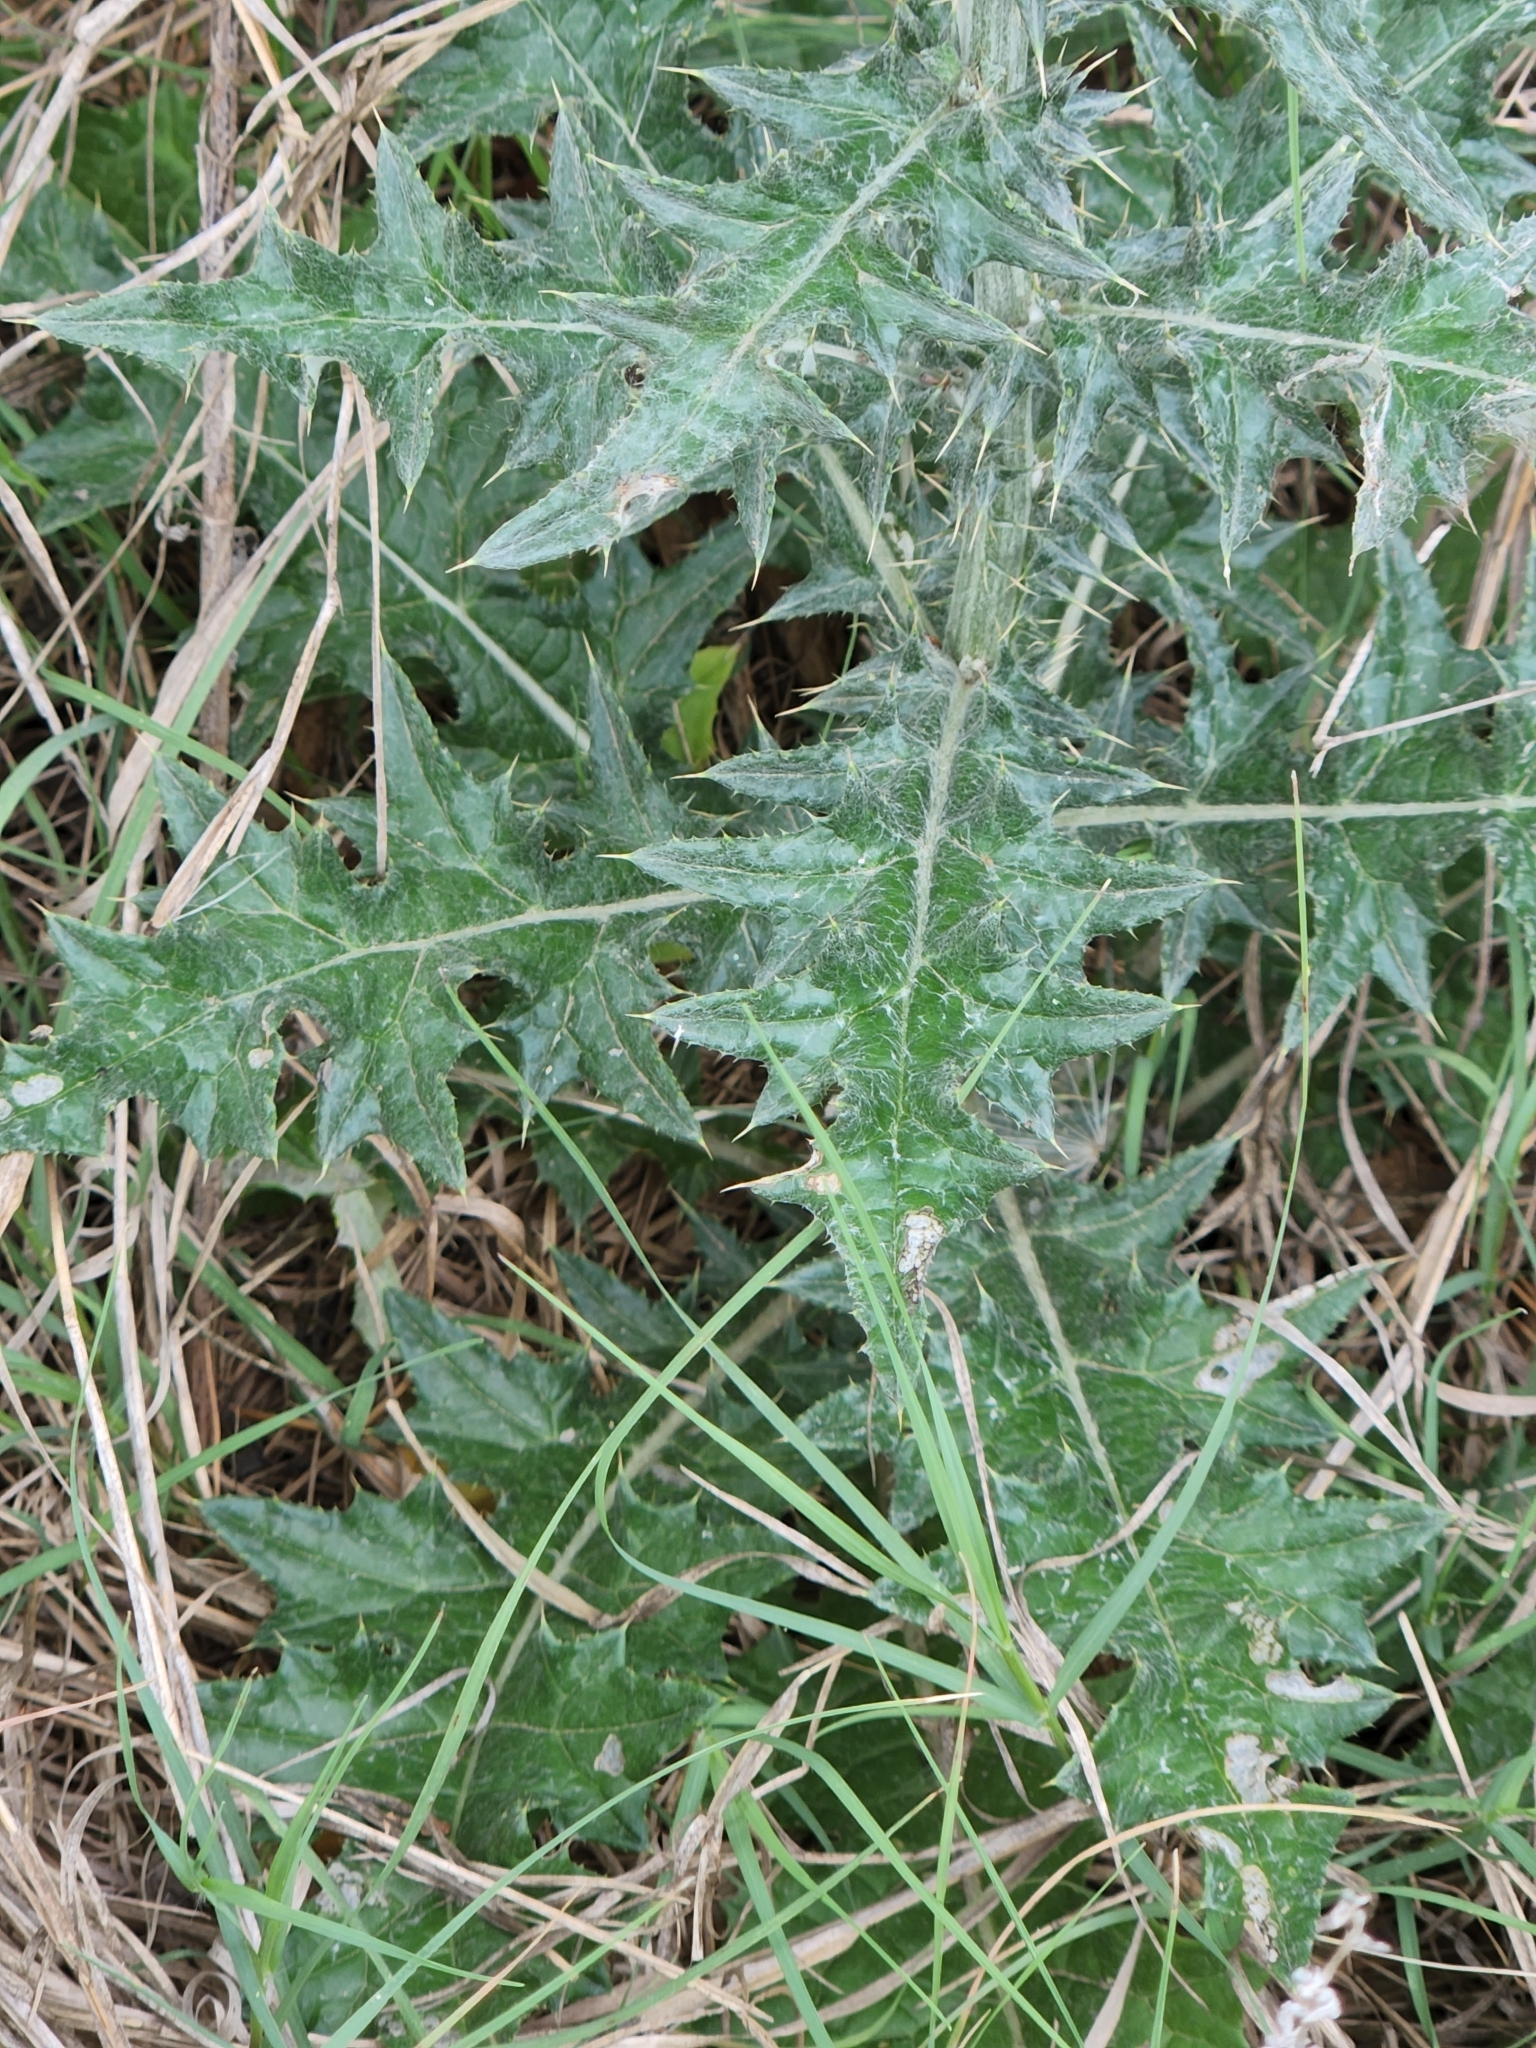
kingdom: Plantae
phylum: Tracheophyta
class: Magnoliopsida
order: Asterales
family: Asteraceae
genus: Cirsium
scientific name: Cirsium texanum
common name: Texas purple thistle
